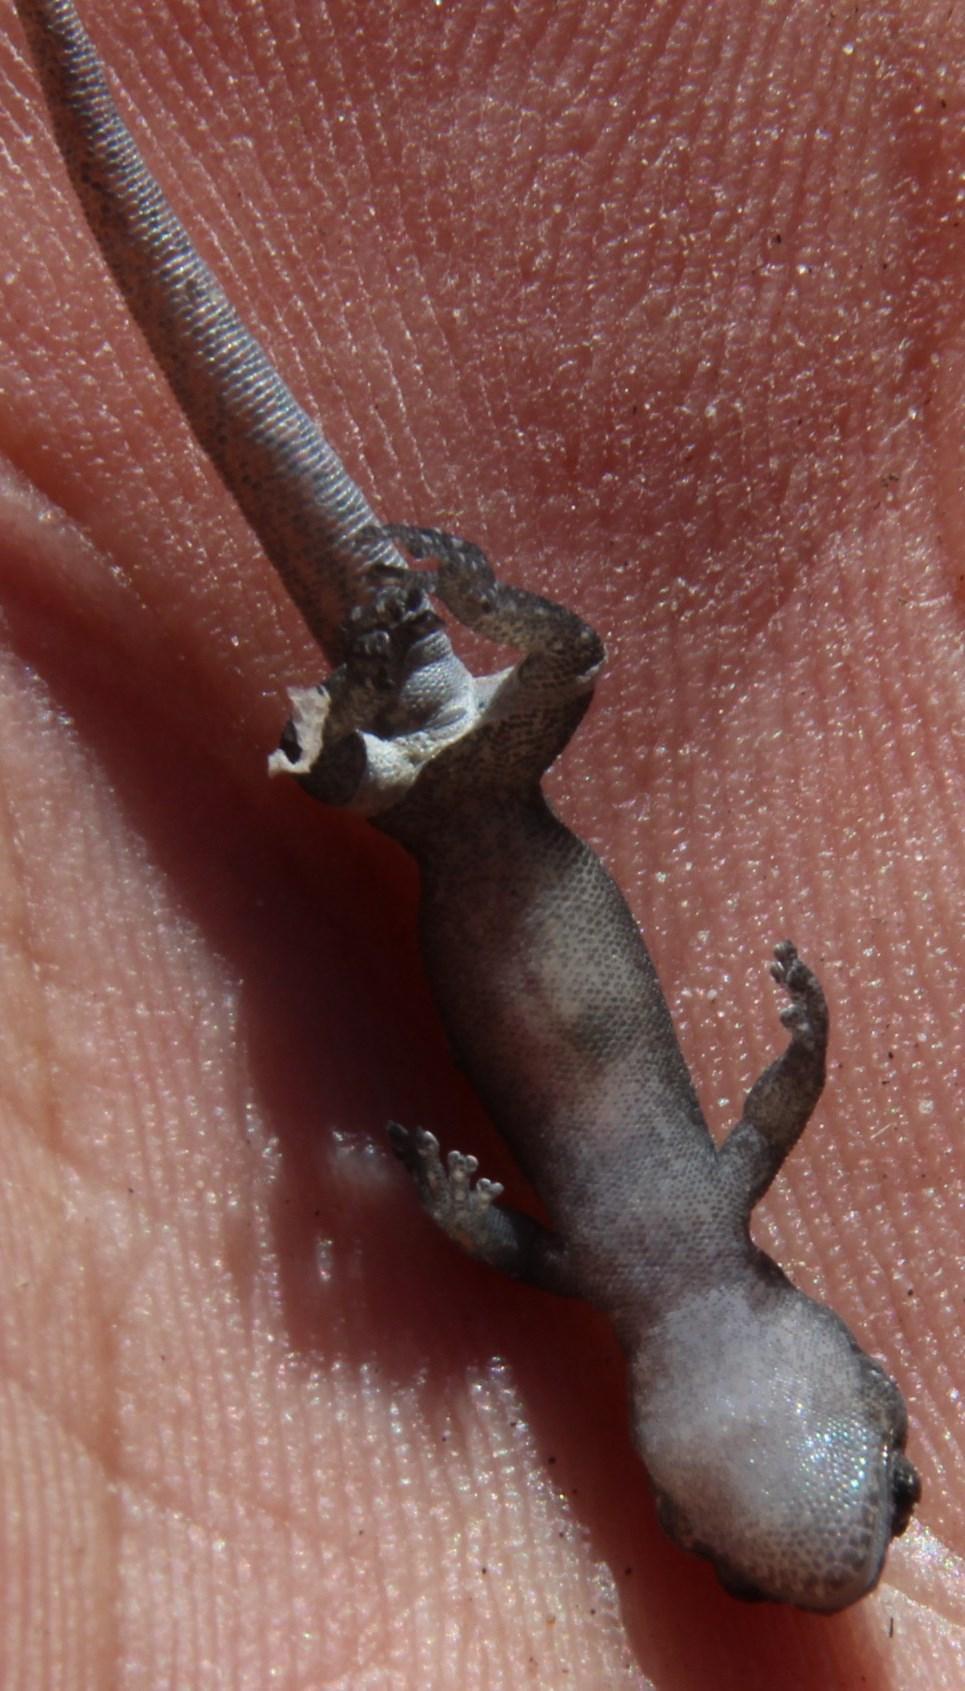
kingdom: Animalia
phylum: Chordata
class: Squamata
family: Gekkonidae
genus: Afrogecko
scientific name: Afrogecko porphyreus
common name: Marbled leaf-toed gecko
